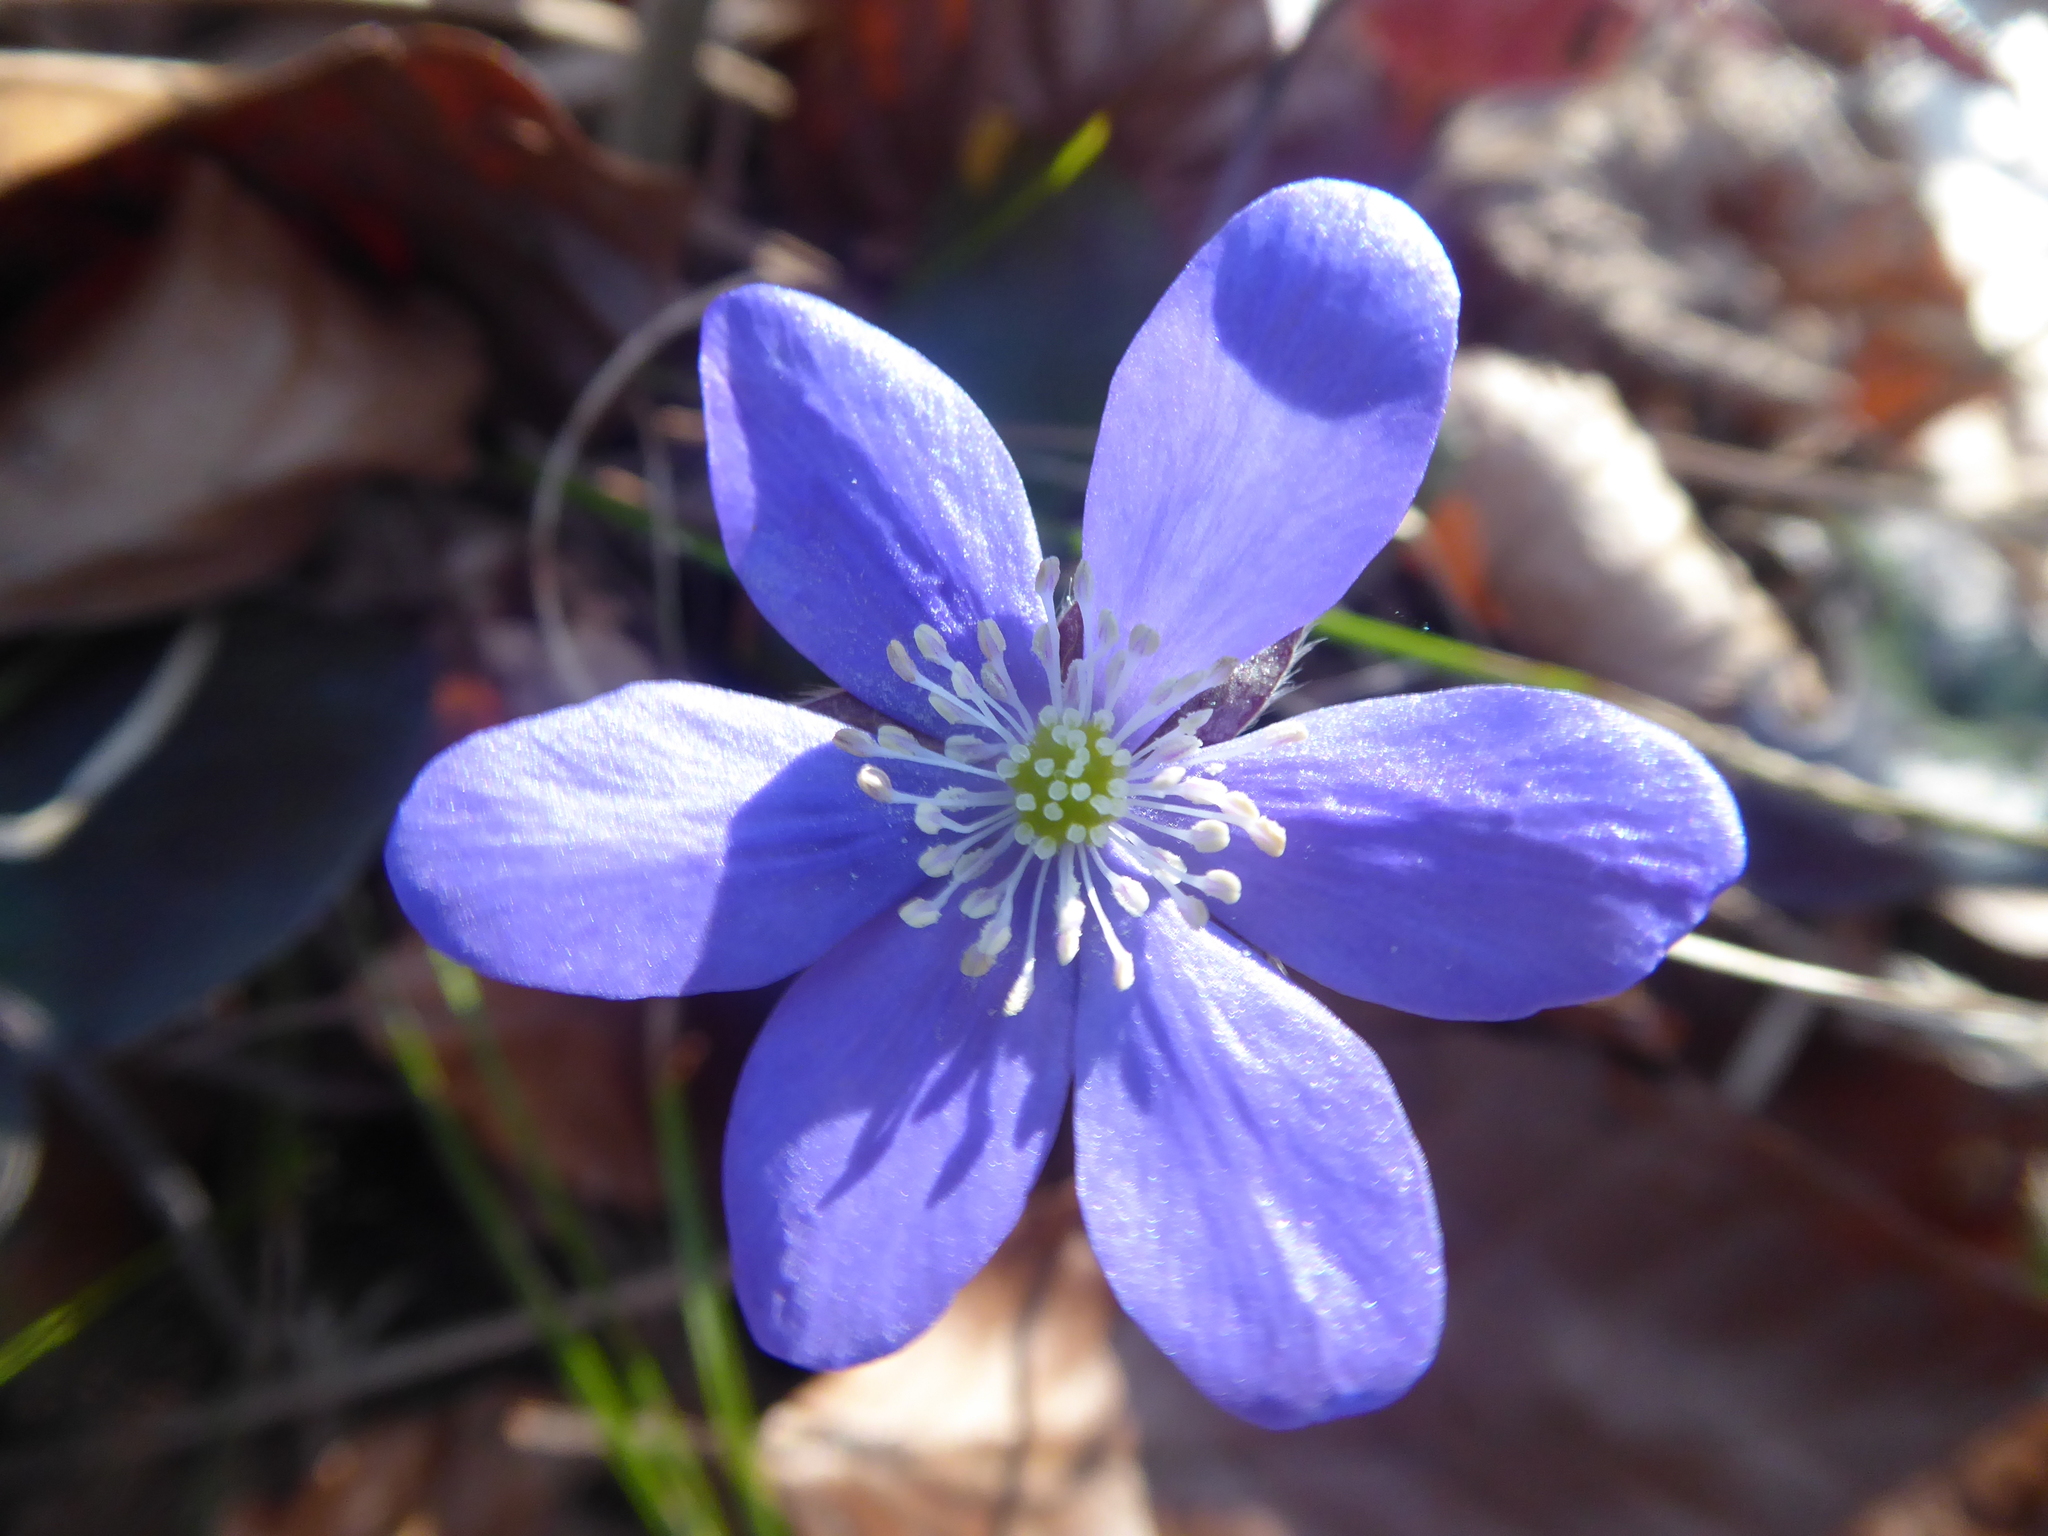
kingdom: Plantae
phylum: Tracheophyta
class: Magnoliopsida
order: Ranunculales
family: Ranunculaceae
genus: Hepatica
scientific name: Hepatica nobilis
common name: Liverleaf
